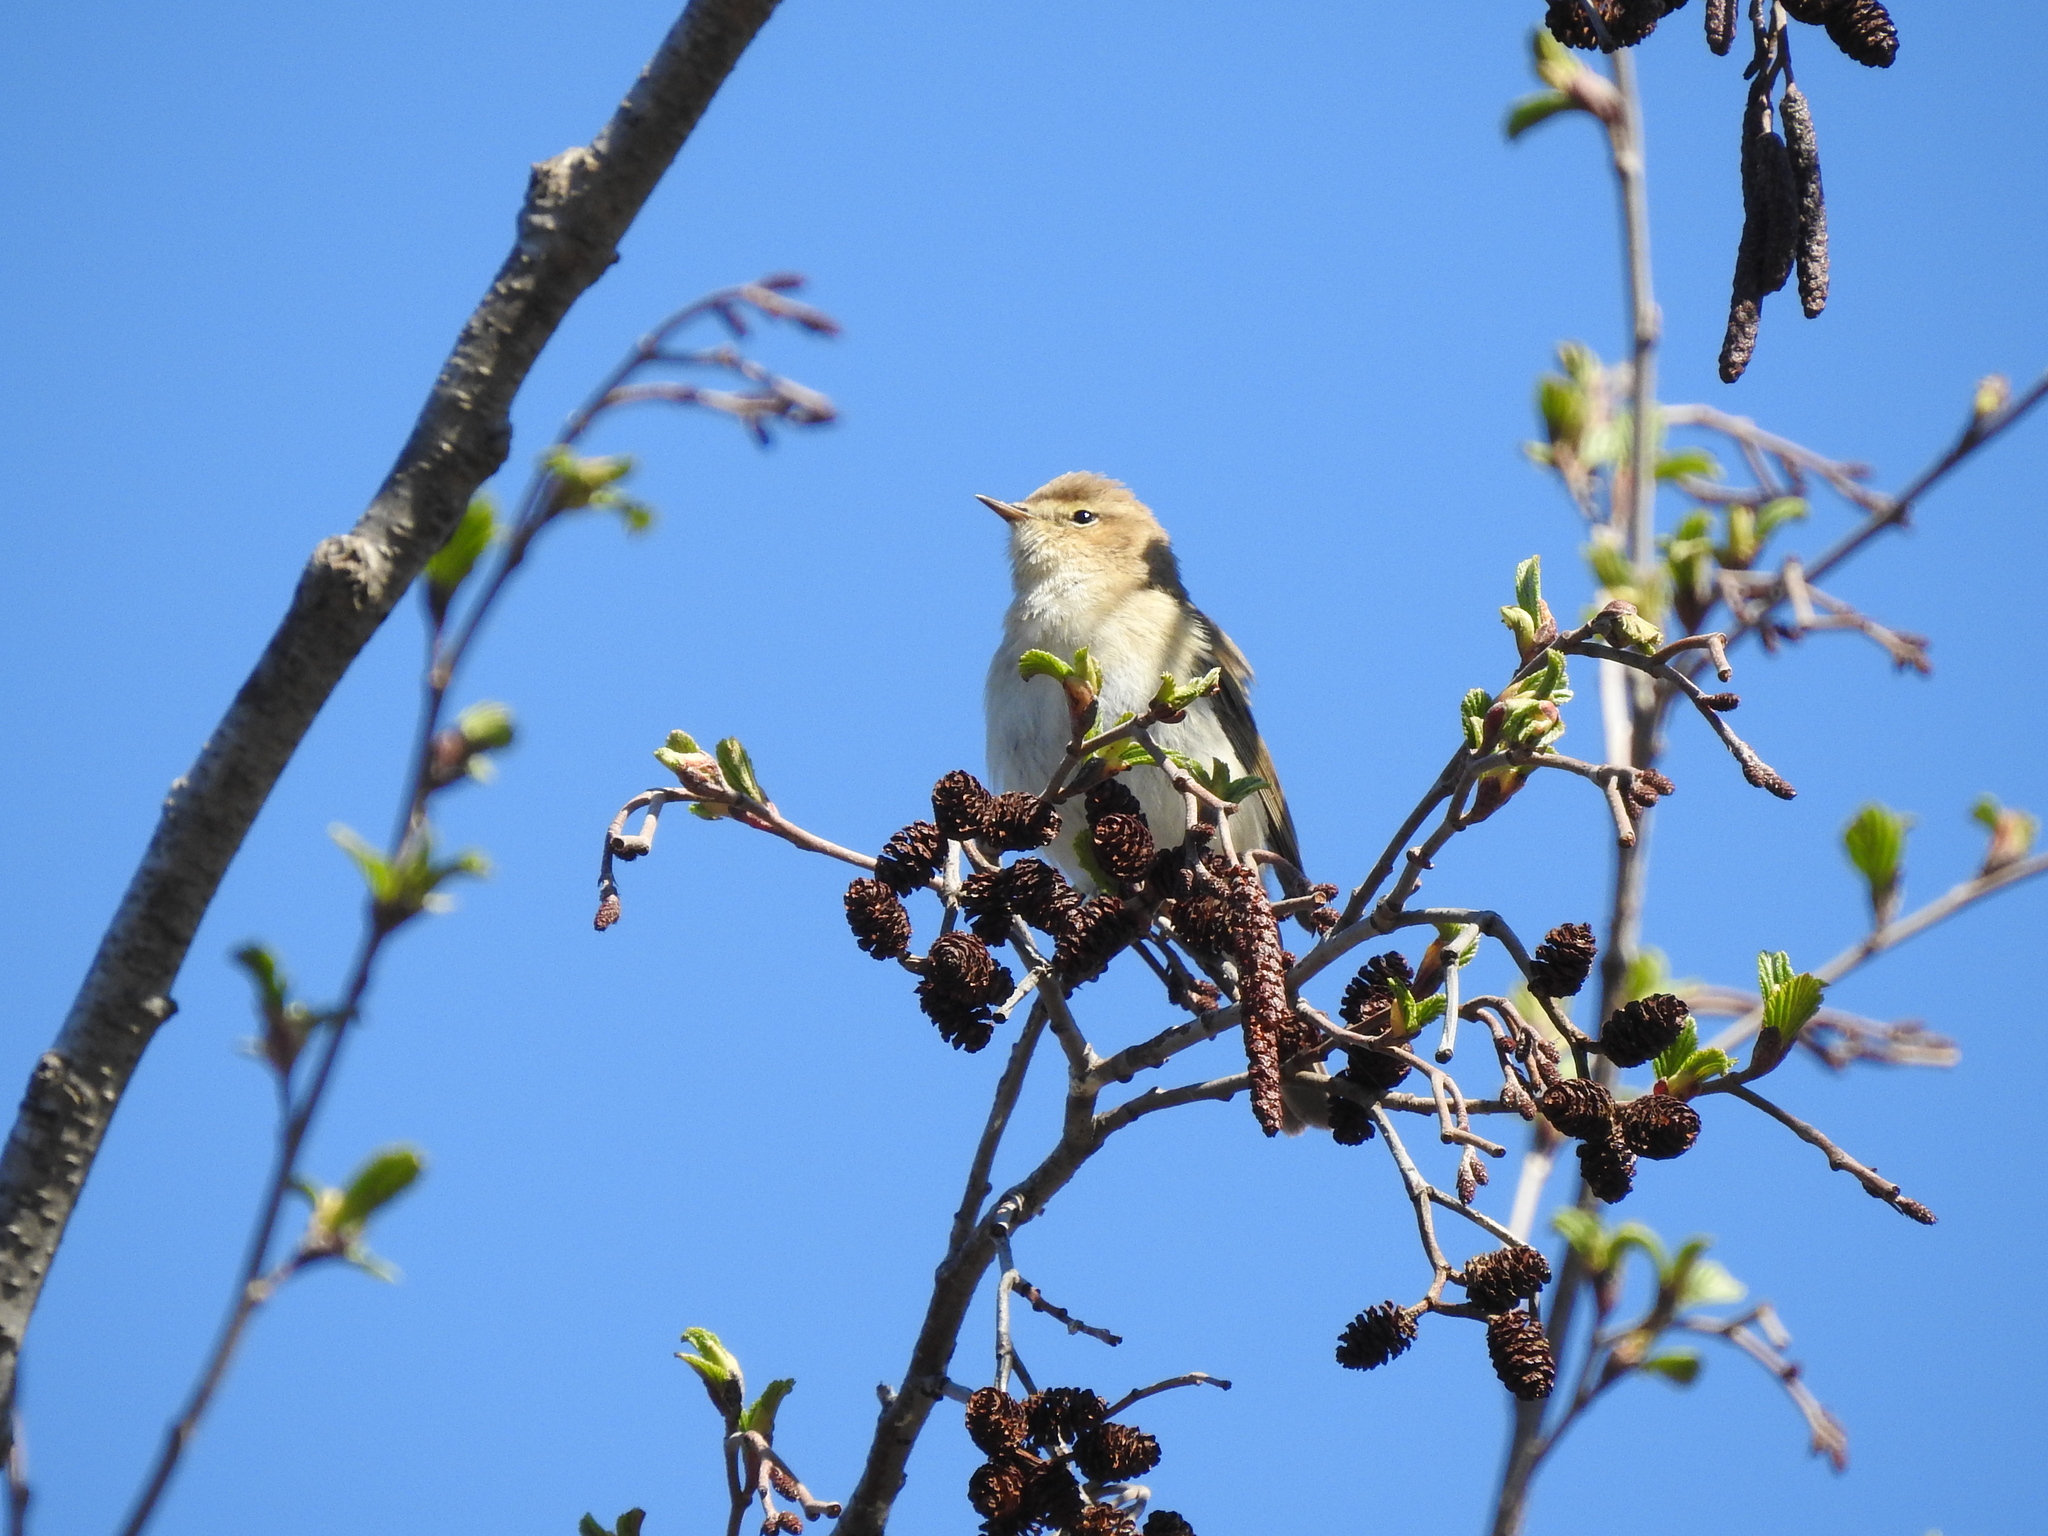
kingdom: Animalia
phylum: Chordata
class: Aves
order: Passeriformes
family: Phylloscopidae
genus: Phylloscopus
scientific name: Phylloscopus collybita
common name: Common chiffchaff
